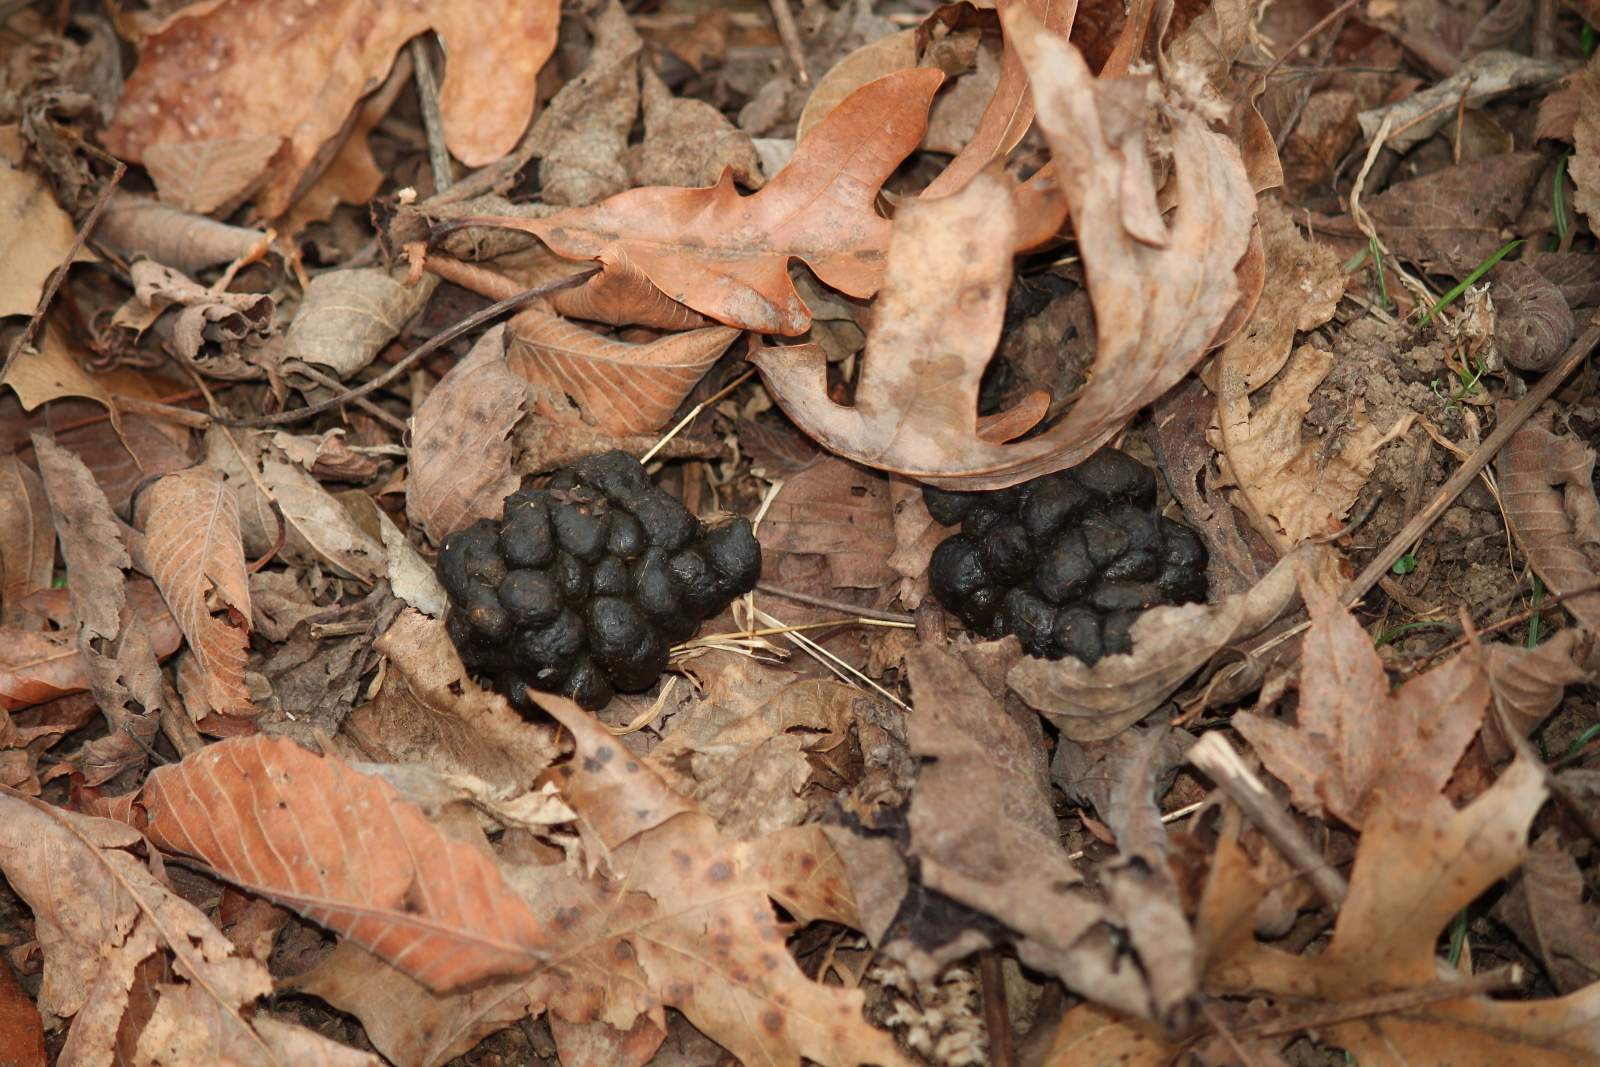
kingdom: Animalia
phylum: Chordata
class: Mammalia
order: Artiodactyla
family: Cervidae
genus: Odocoileus
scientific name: Odocoileus virginianus
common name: White-tailed deer
